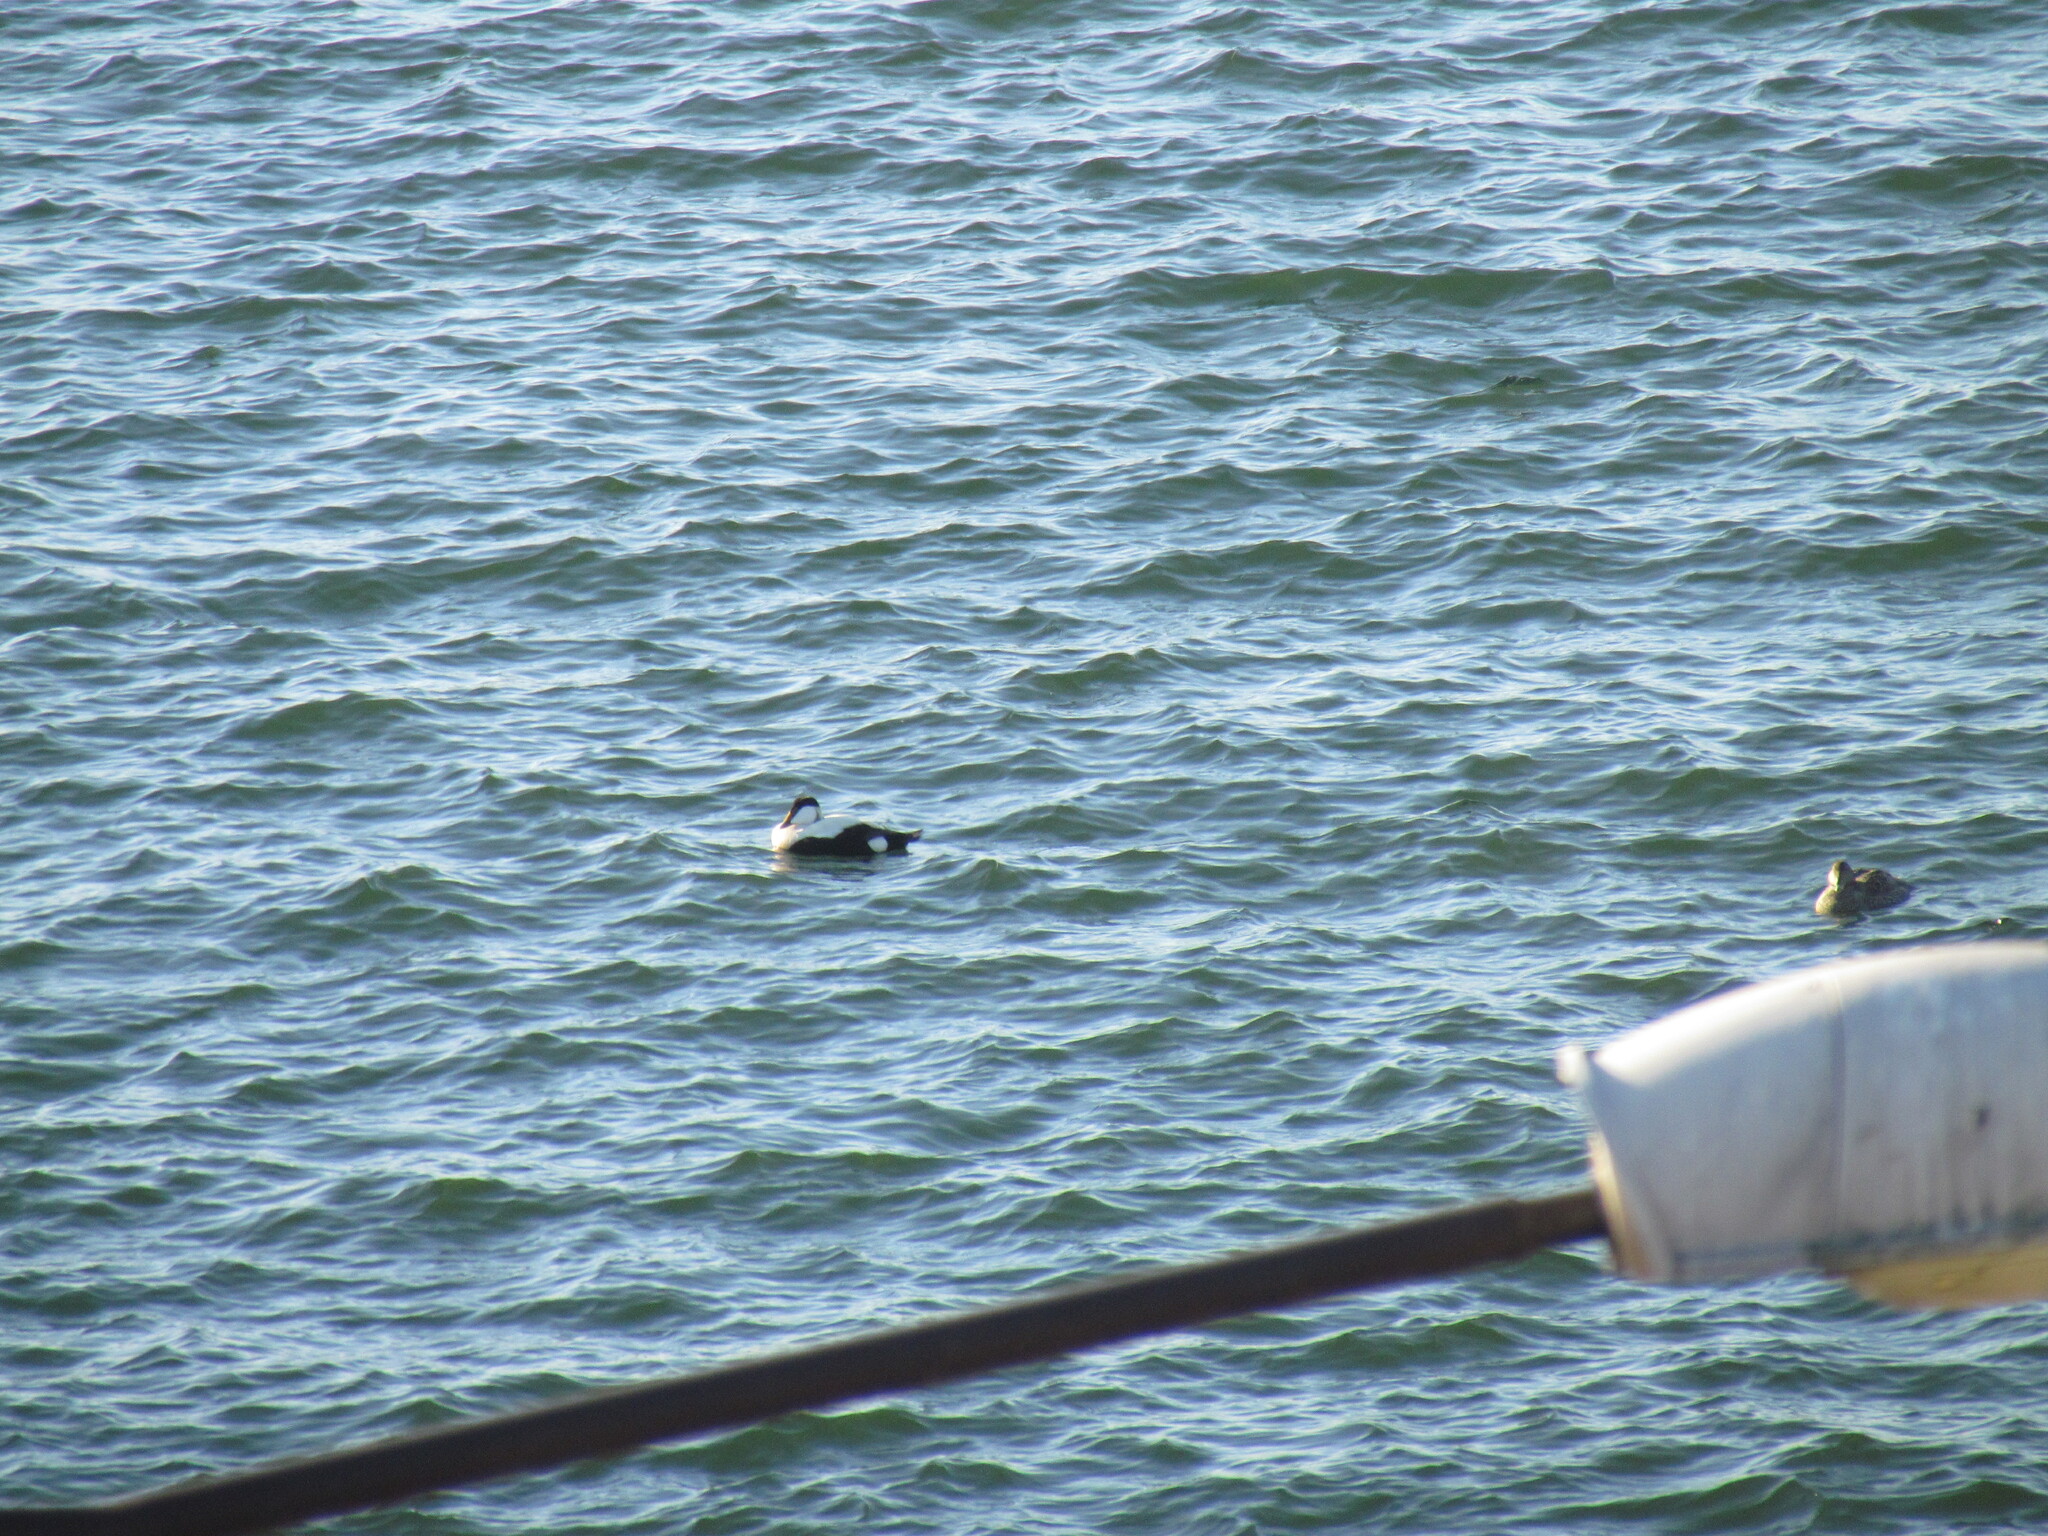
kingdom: Animalia
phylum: Chordata
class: Aves
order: Anseriformes
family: Anatidae
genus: Somateria
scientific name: Somateria mollissima
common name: Common eider
